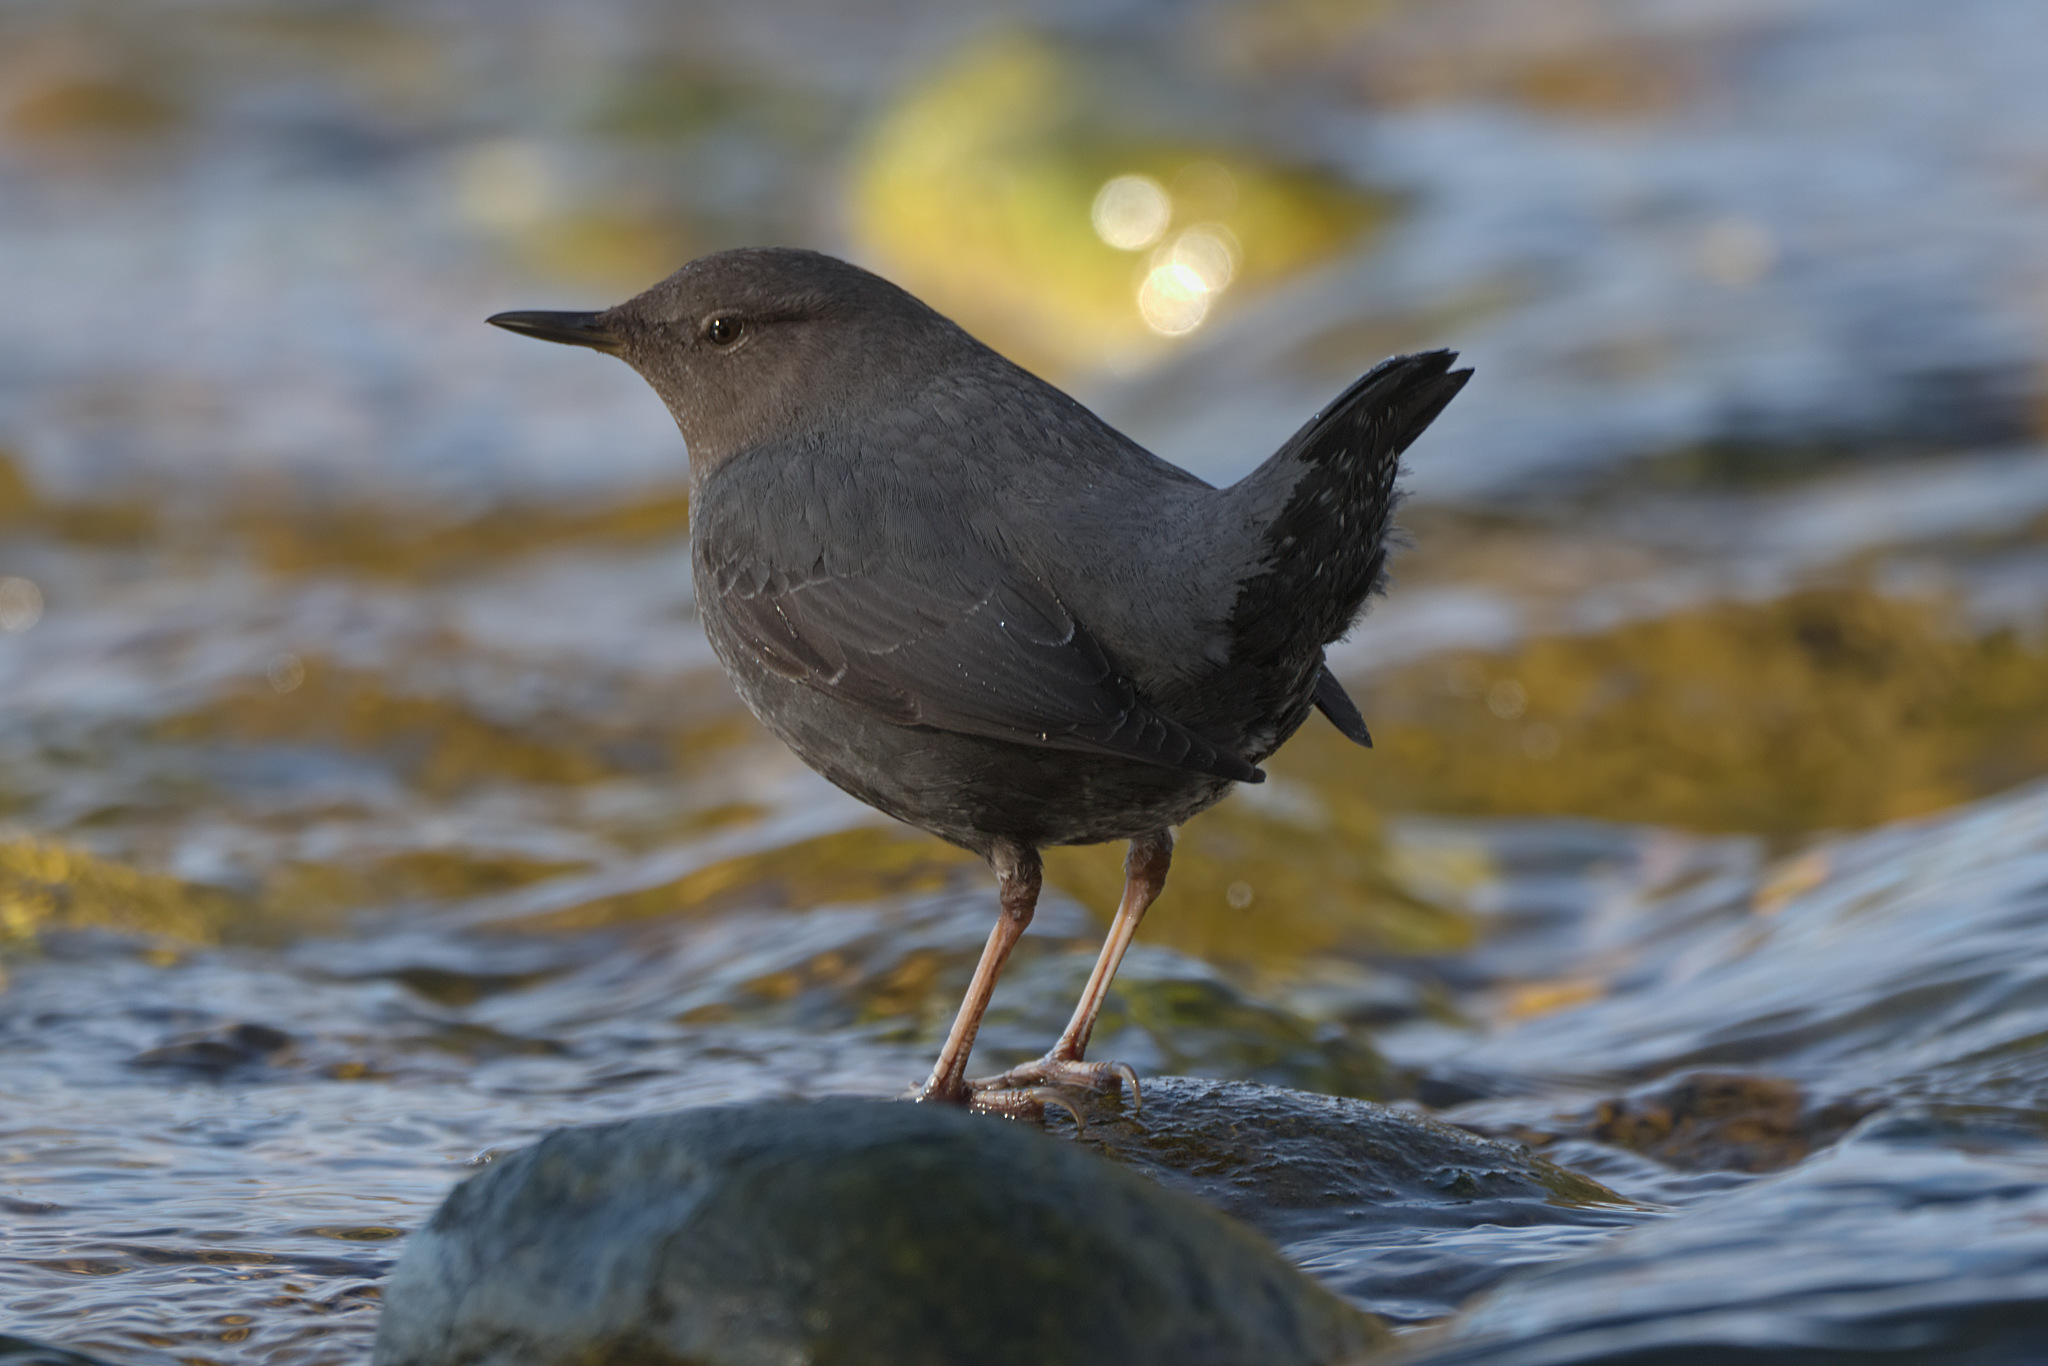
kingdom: Animalia
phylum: Chordata
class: Aves
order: Passeriformes
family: Cinclidae
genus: Cinclus
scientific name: Cinclus mexicanus
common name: American dipper
